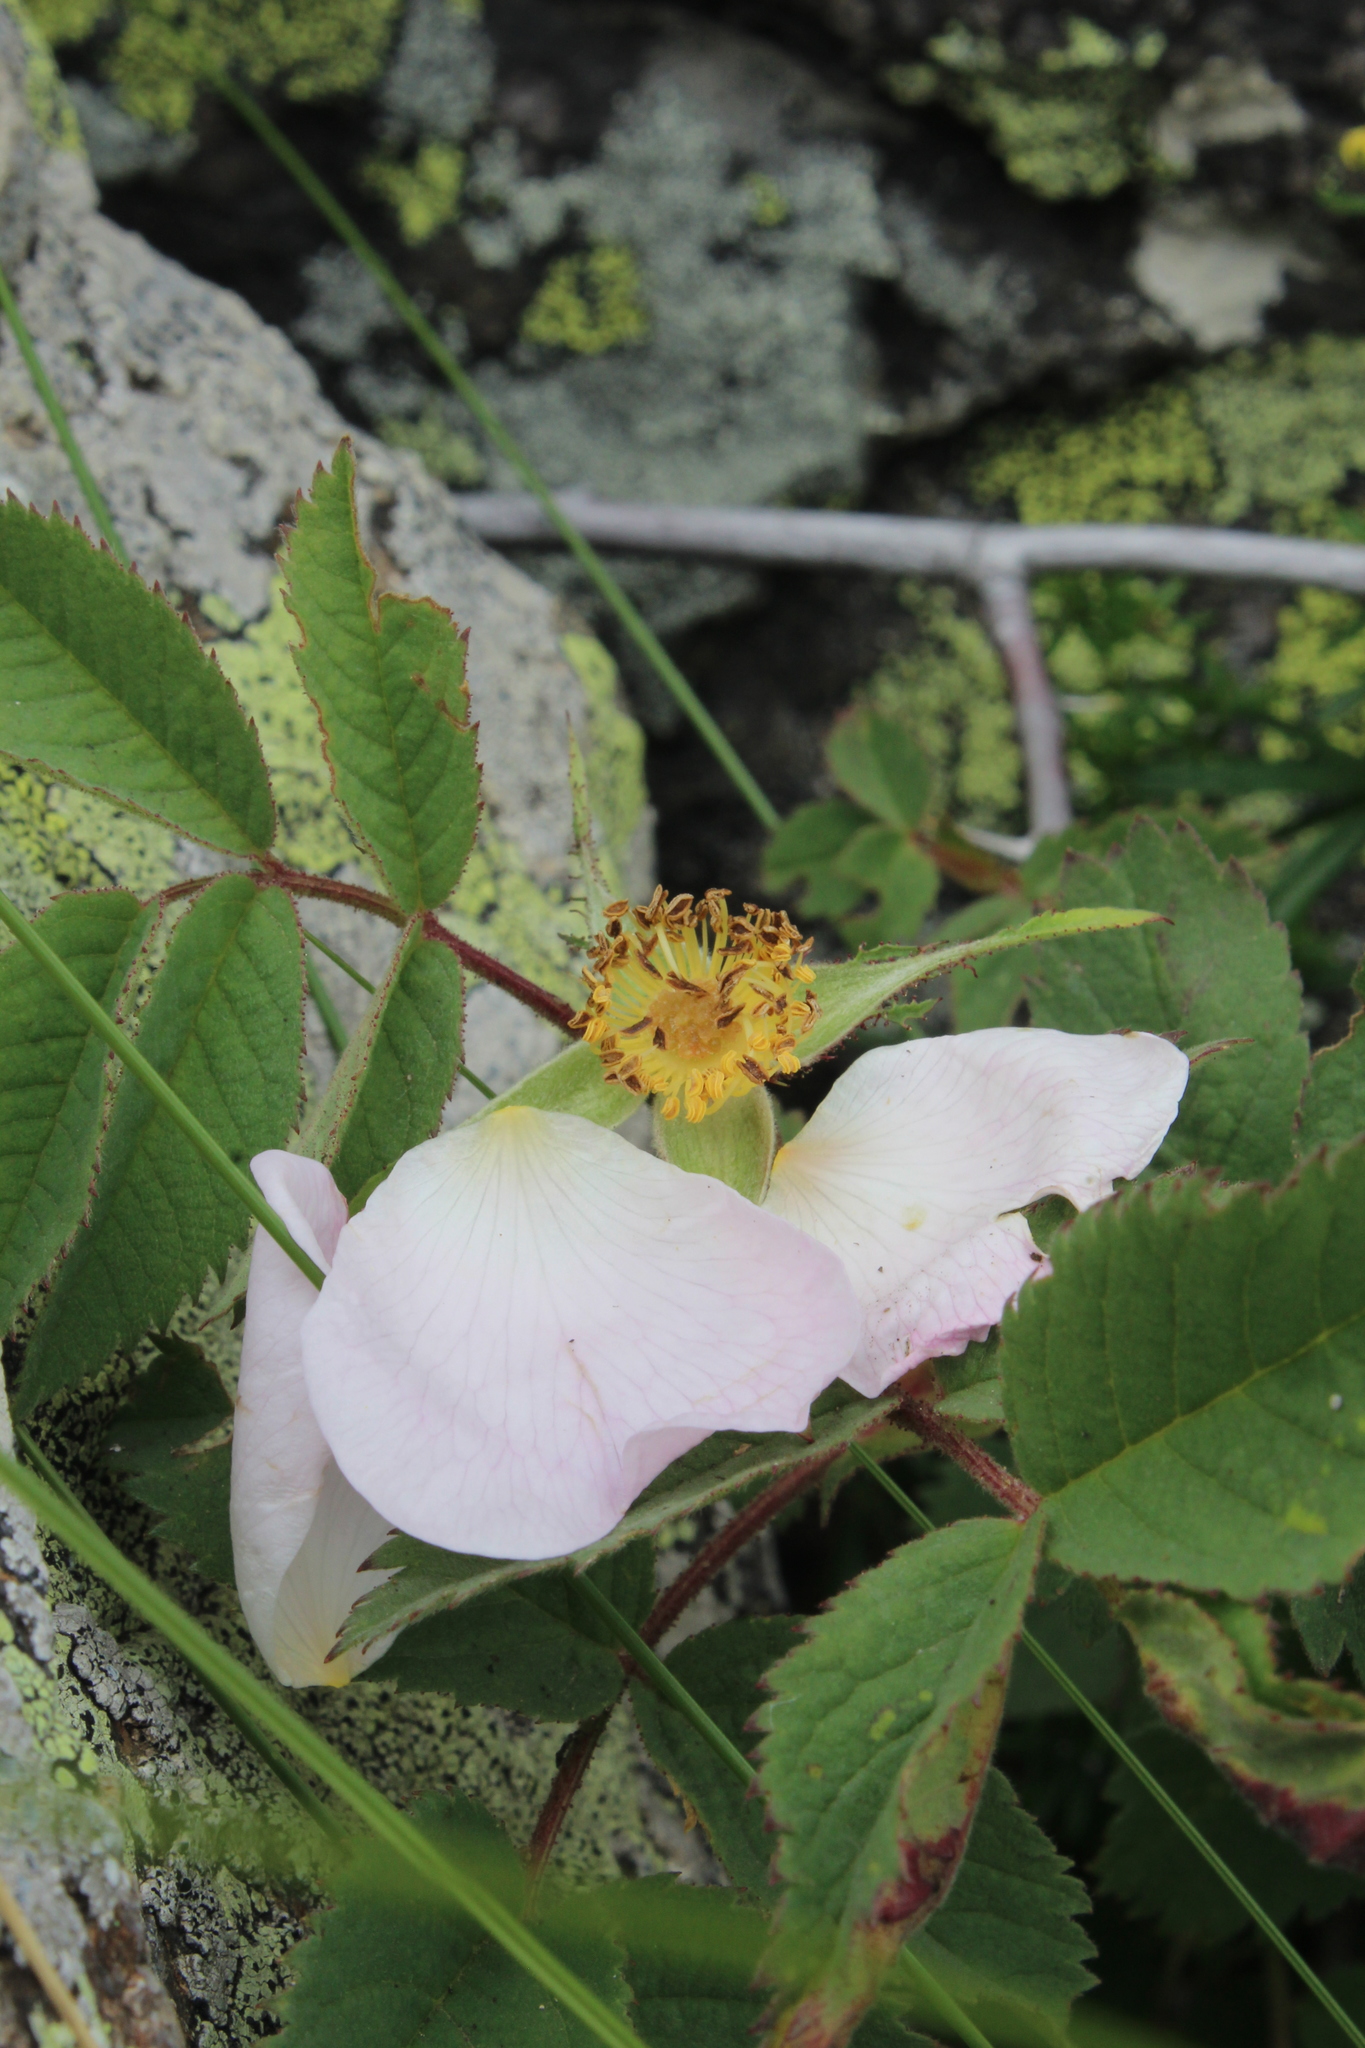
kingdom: Plantae
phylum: Tracheophyta
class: Magnoliopsida
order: Rosales
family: Rosaceae
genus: Rosa
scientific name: Rosa gallica
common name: French rose
